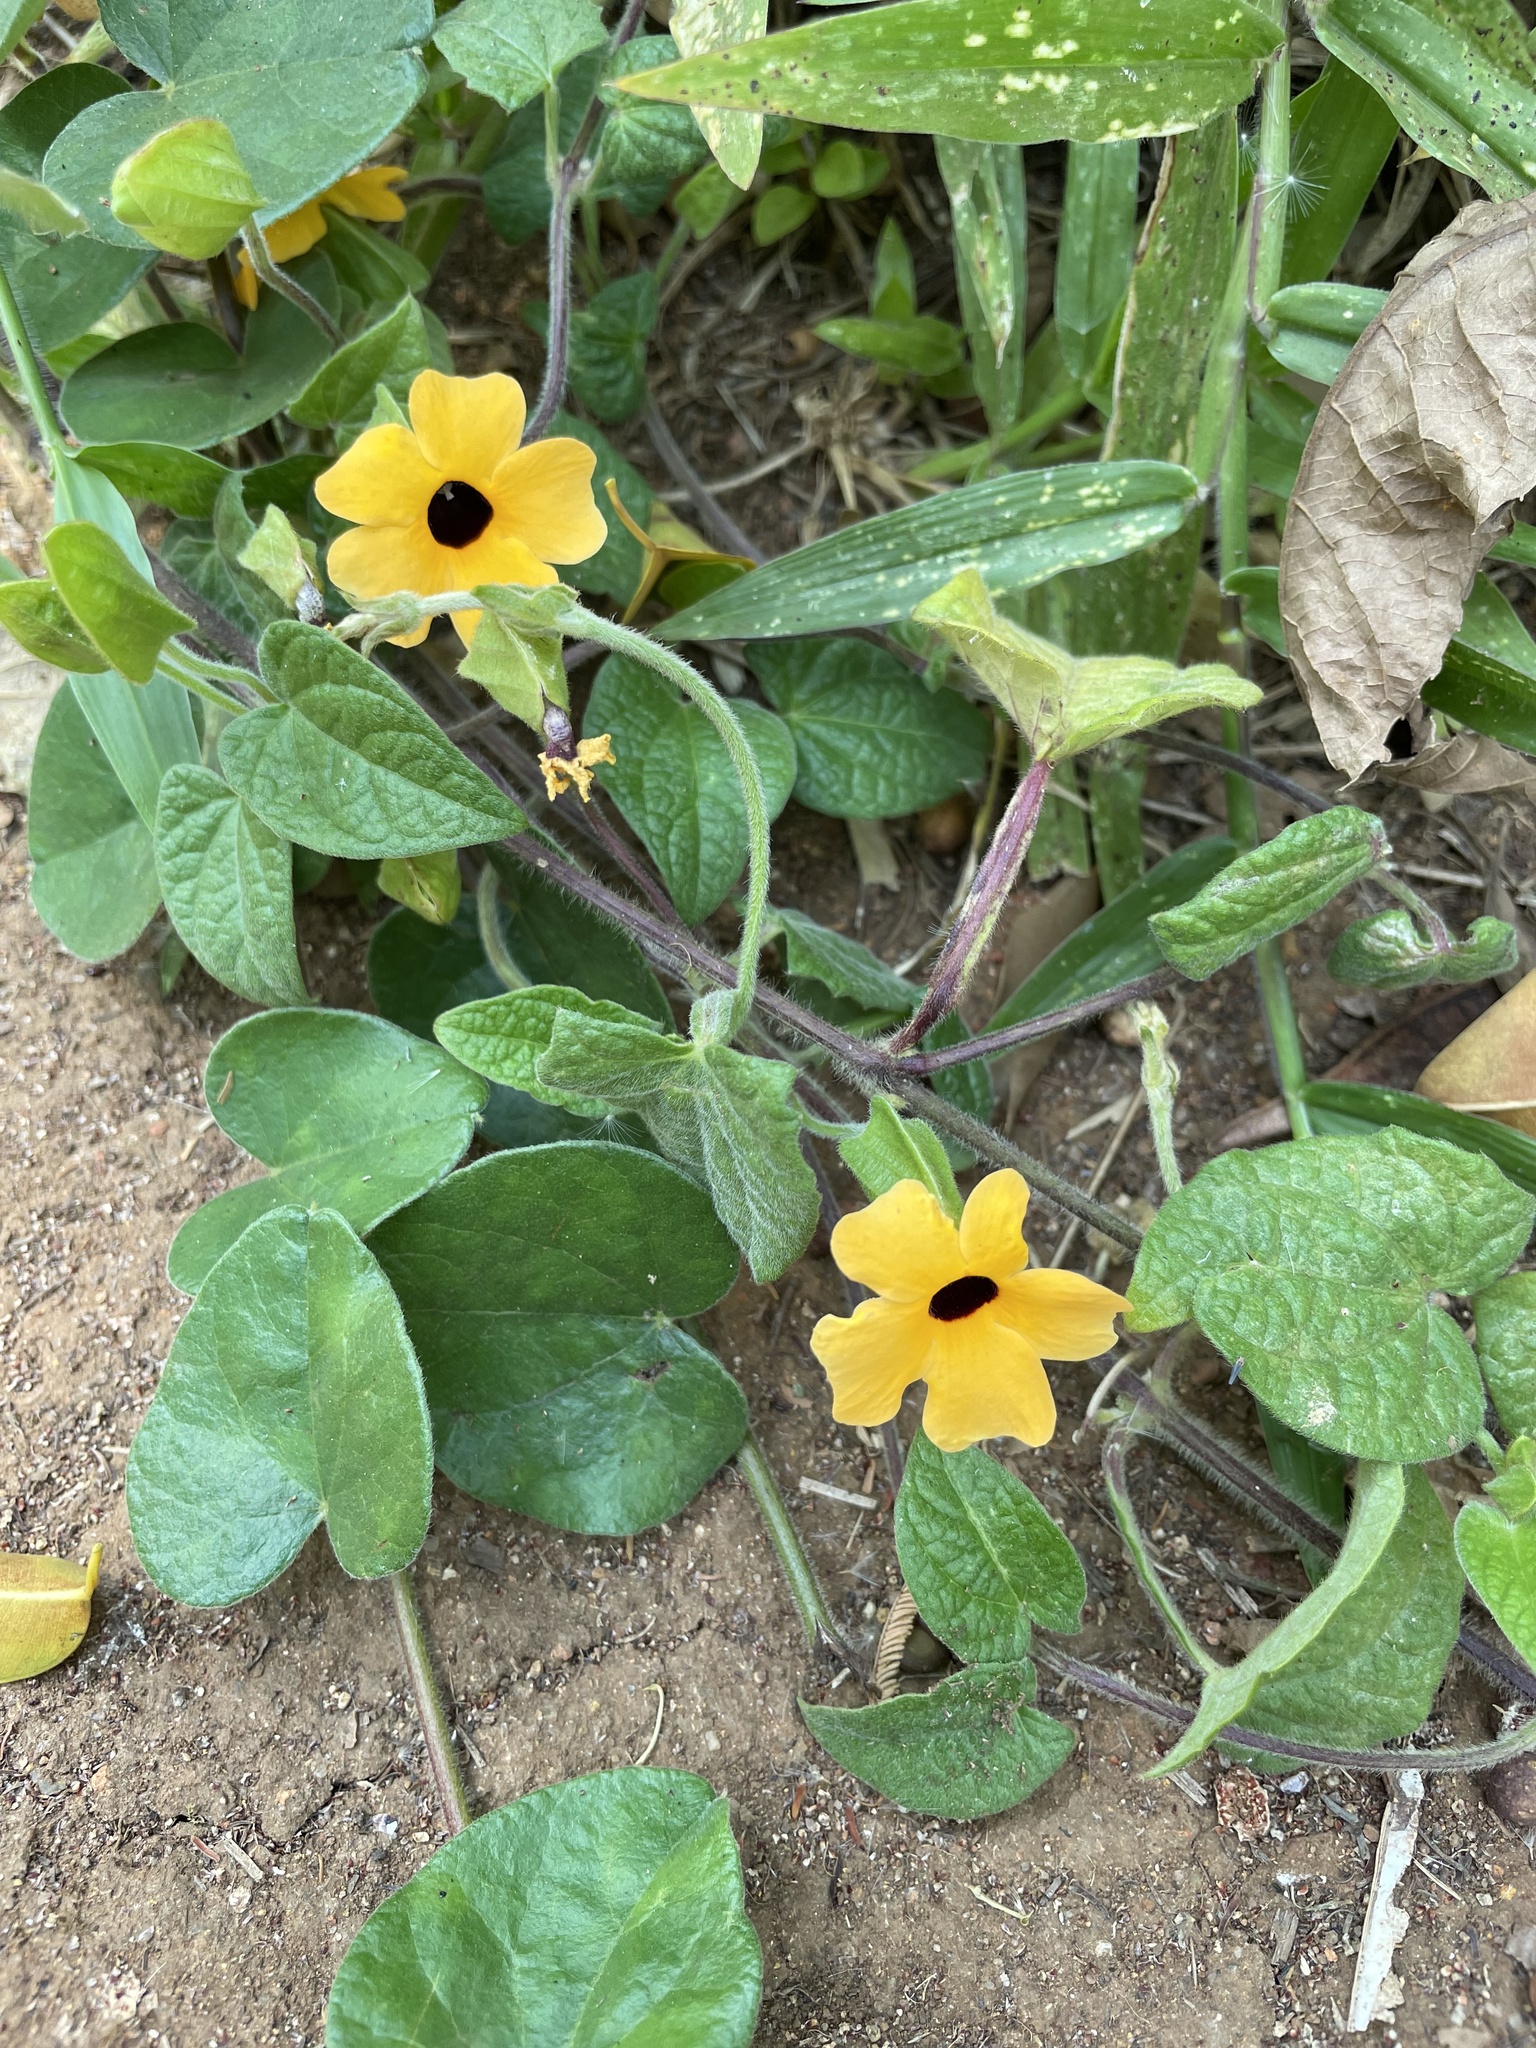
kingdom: Plantae
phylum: Tracheophyta
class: Magnoliopsida
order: Lamiales
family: Acanthaceae
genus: Thunbergia
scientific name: Thunbergia alata
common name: Blackeyed susan vine
